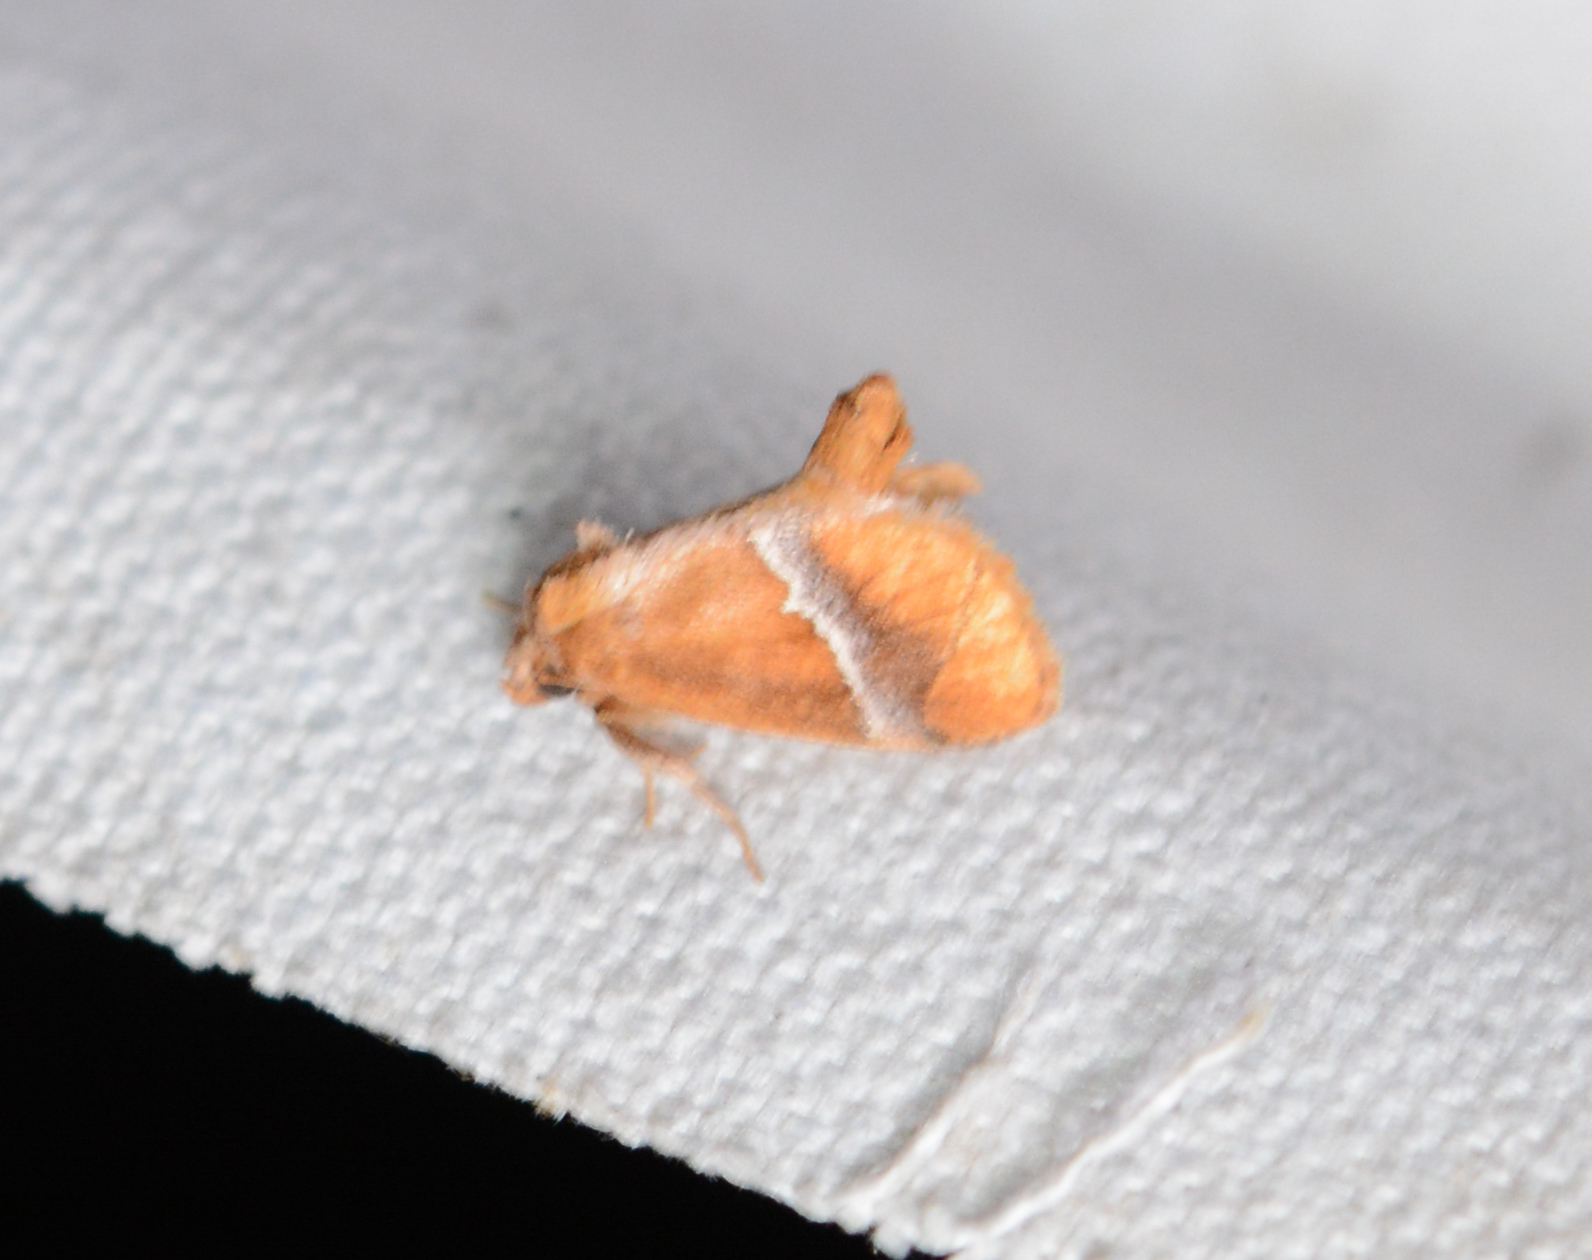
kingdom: Animalia
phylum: Arthropoda
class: Insecta
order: Lepidoptera
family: Limacodidae
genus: Lithacodes
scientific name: Lithacodes fasciola
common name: Yellow-shouldered slug moth
